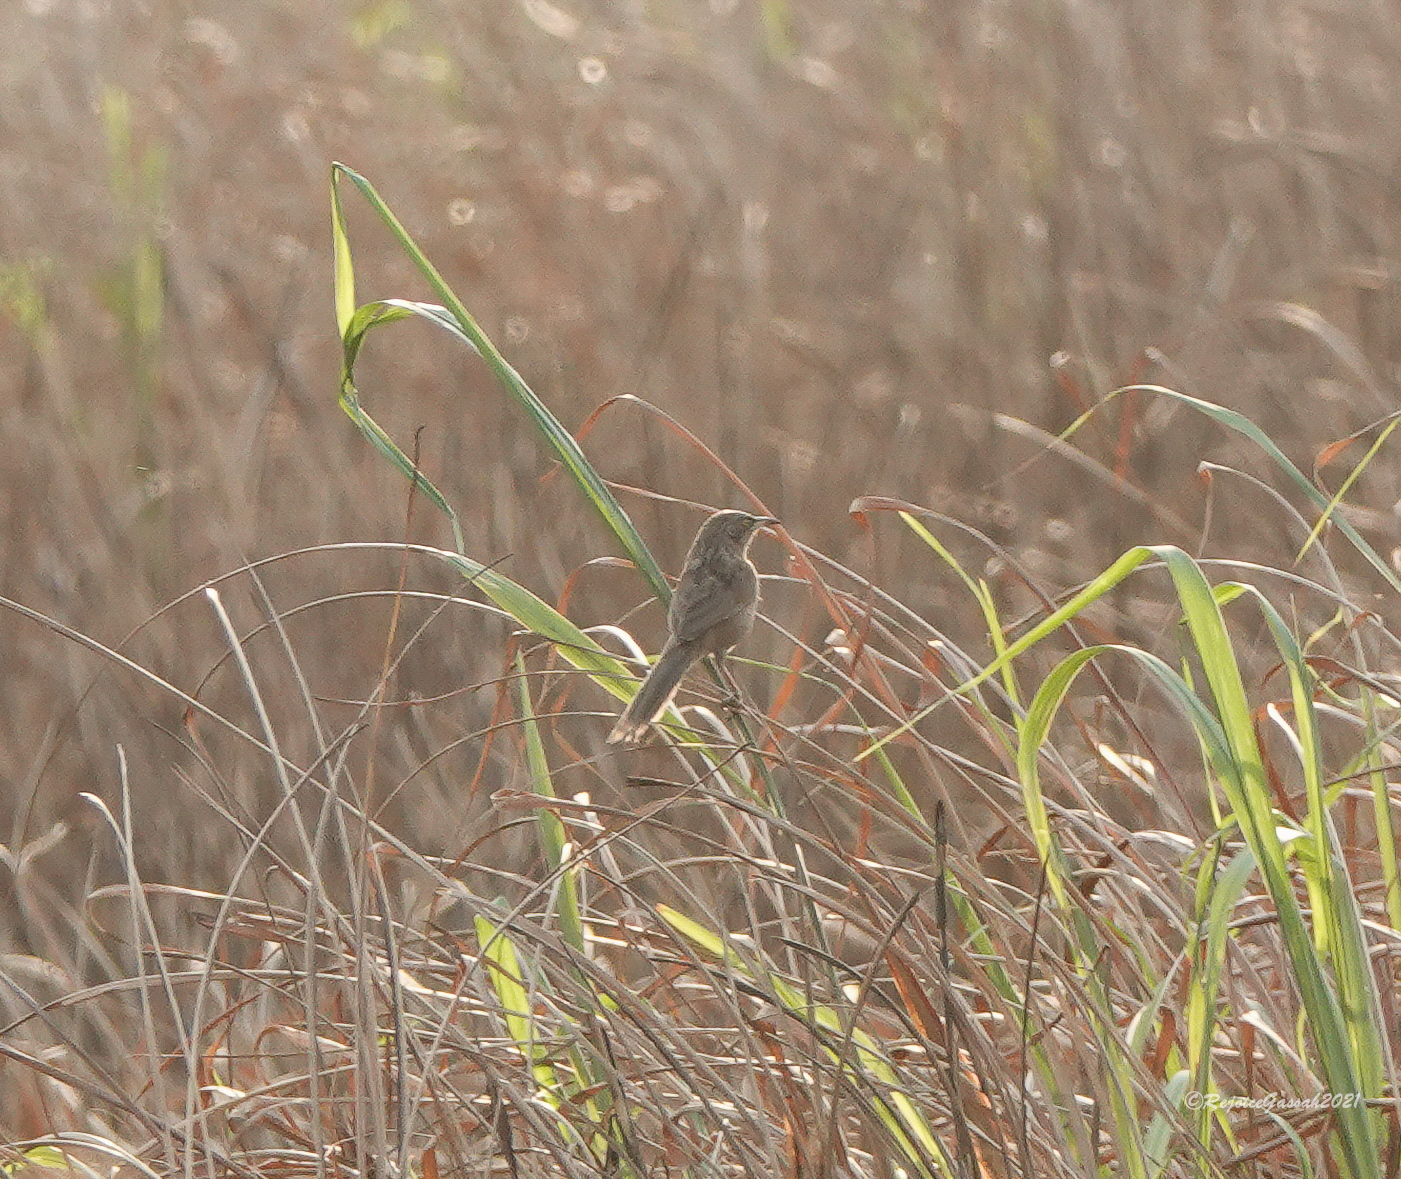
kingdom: Animalia
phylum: Chordata
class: Aves
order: Passeriformes
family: Leiothrichidae
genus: Turdoides
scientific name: Turdoides earlei
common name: Striated babbler
